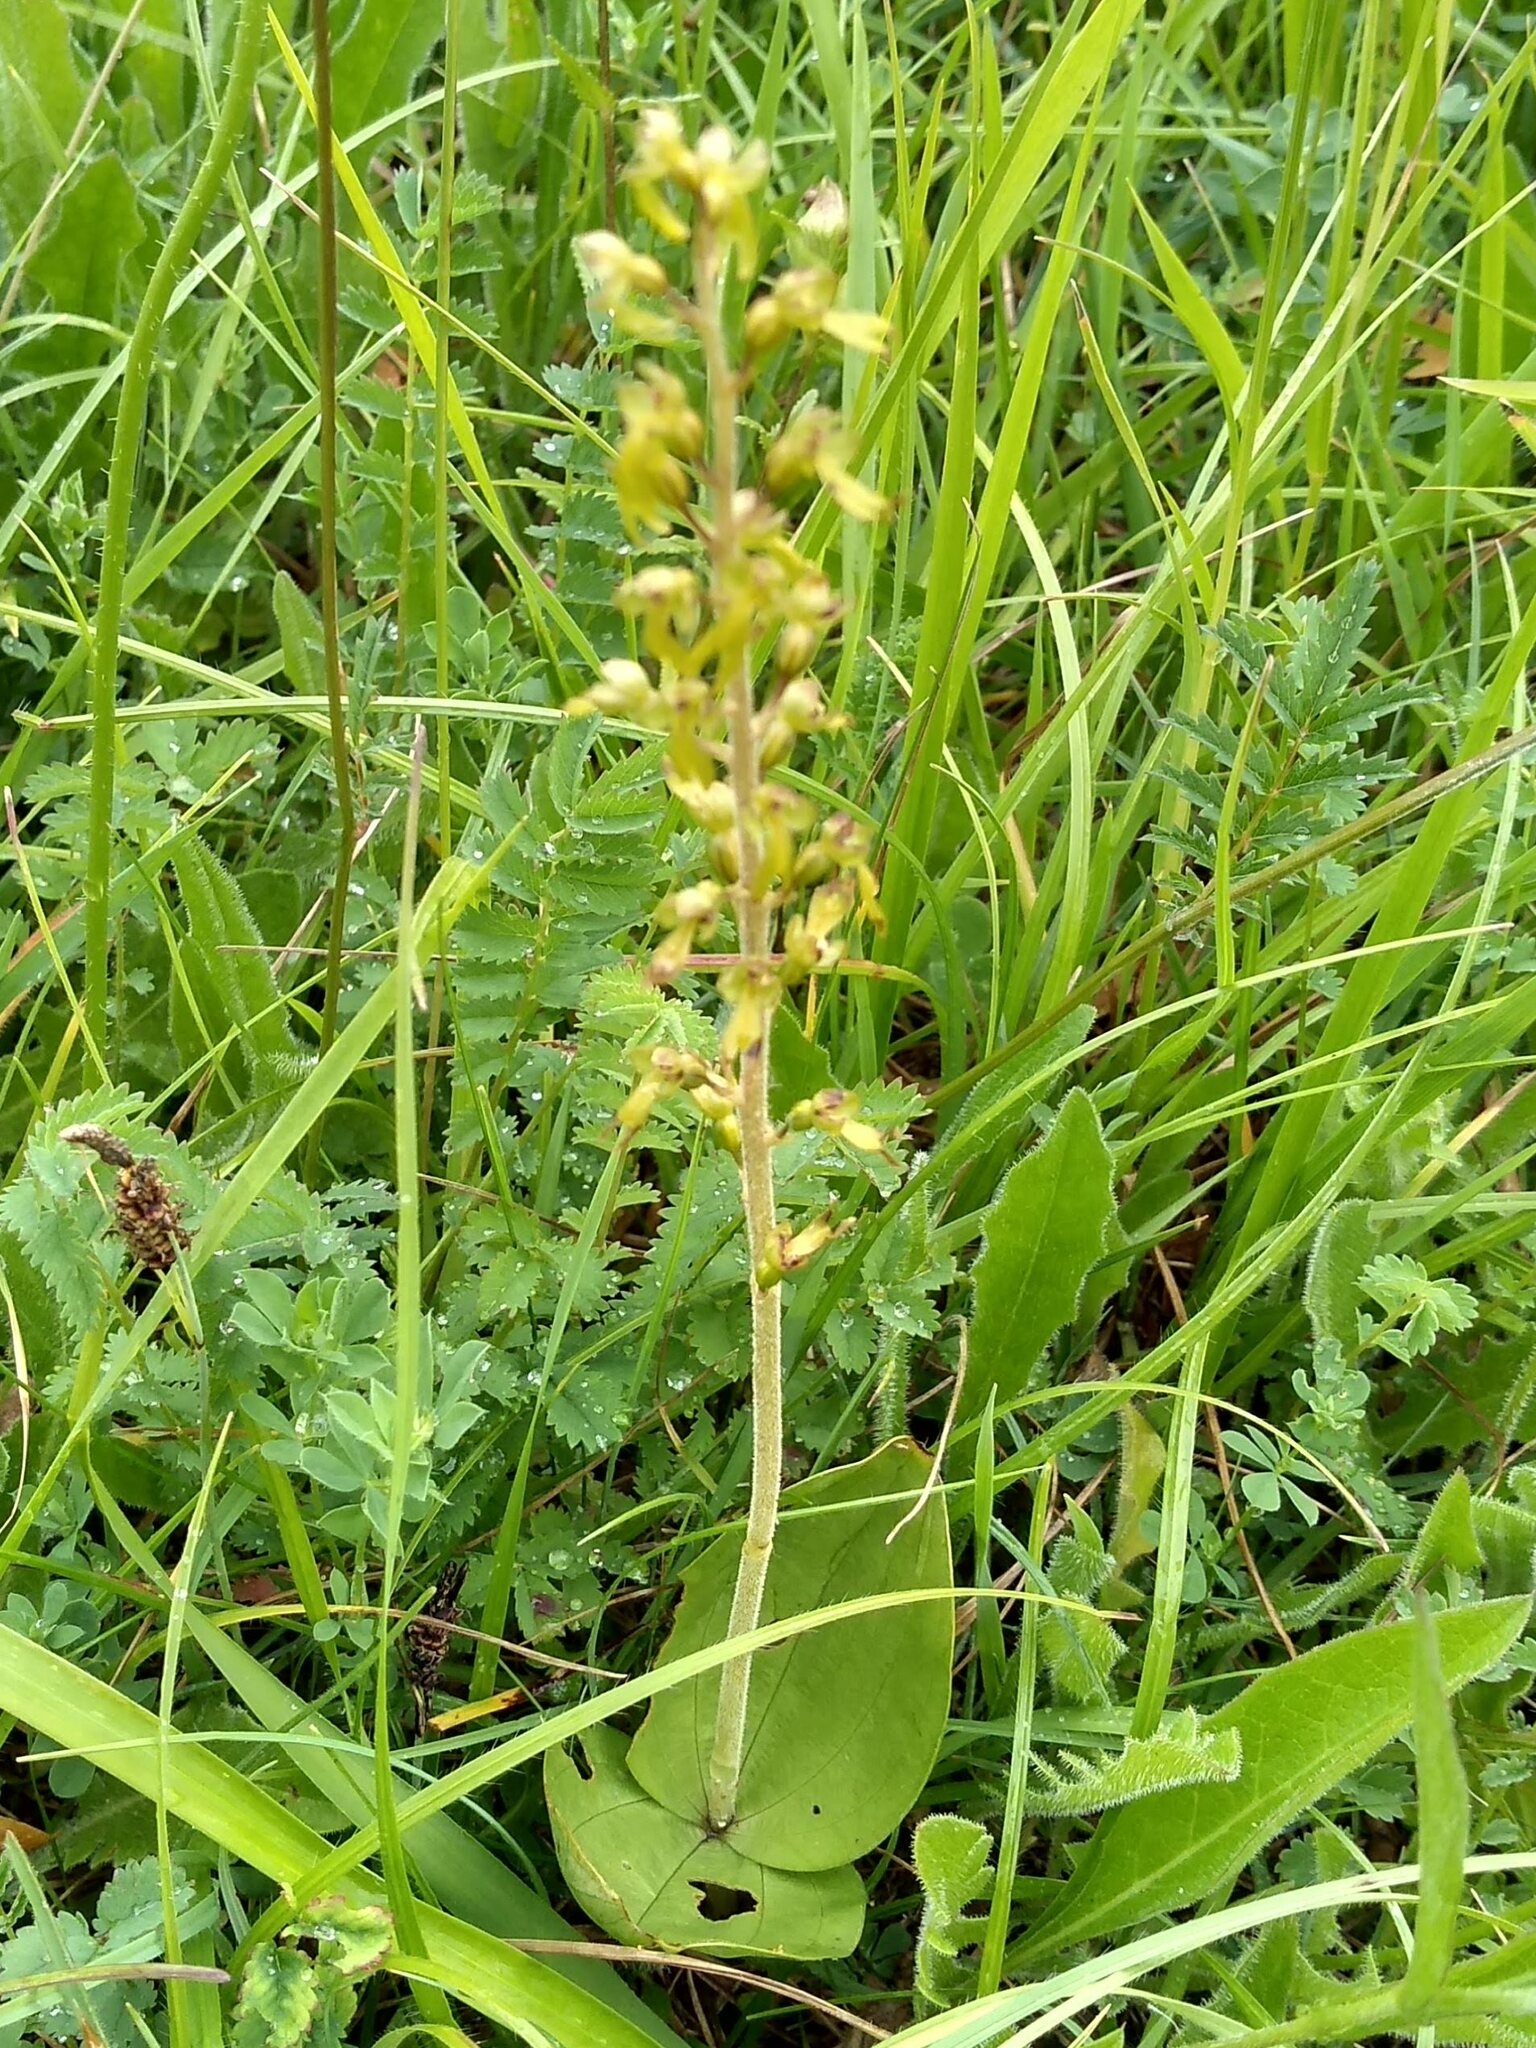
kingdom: Plantae
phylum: Tracheophyta
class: Liliopsida
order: Asparagales
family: Orchidaceae
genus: Neottia
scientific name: Neottia ovata
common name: Common twayblade
